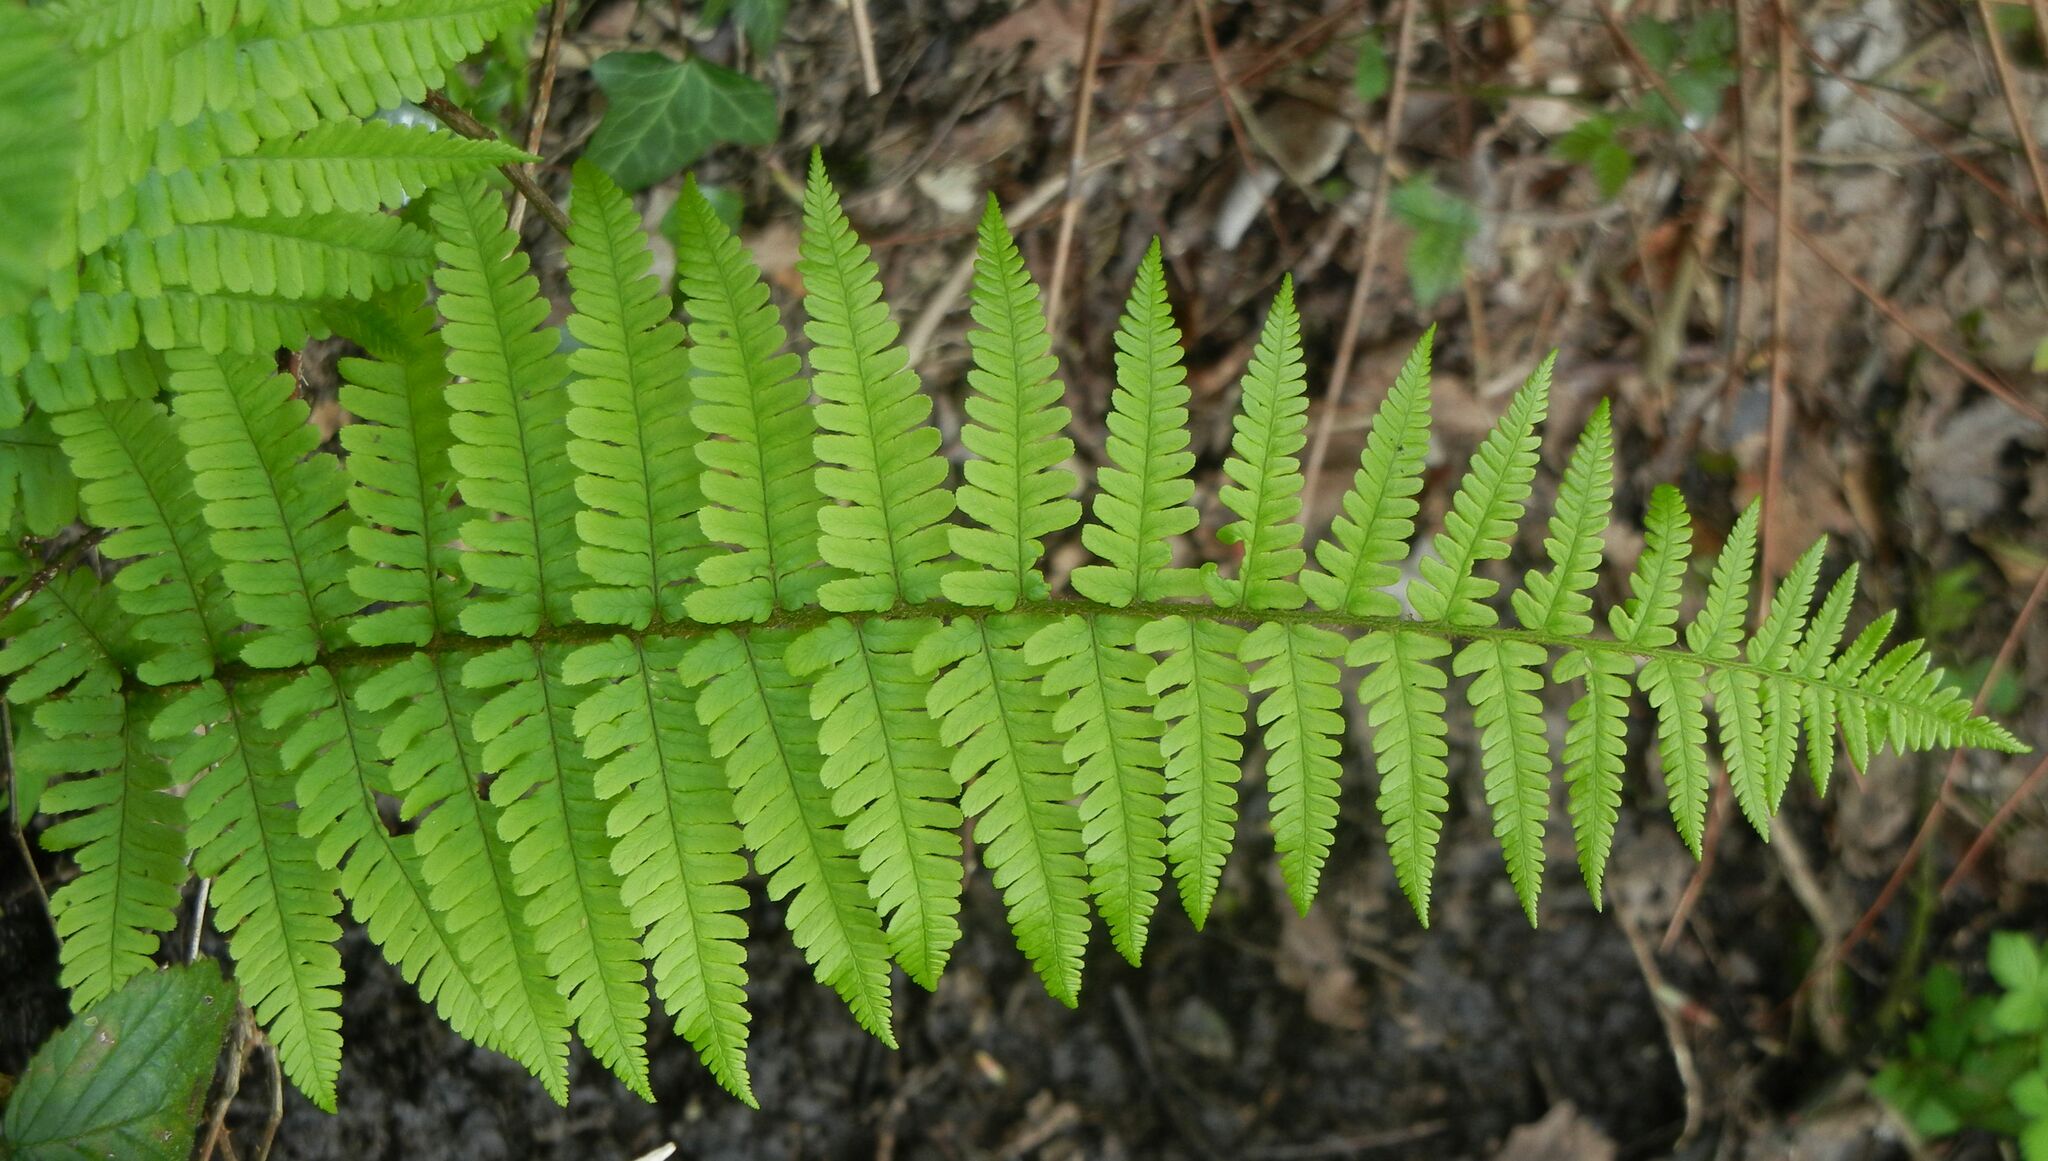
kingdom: Plantae
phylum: Tracheophyta
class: Polypodiopsida
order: Polypodiales
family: Dryopteridaceae
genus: Dryopteris
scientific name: Dryopteris filix-mas
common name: Male fern
